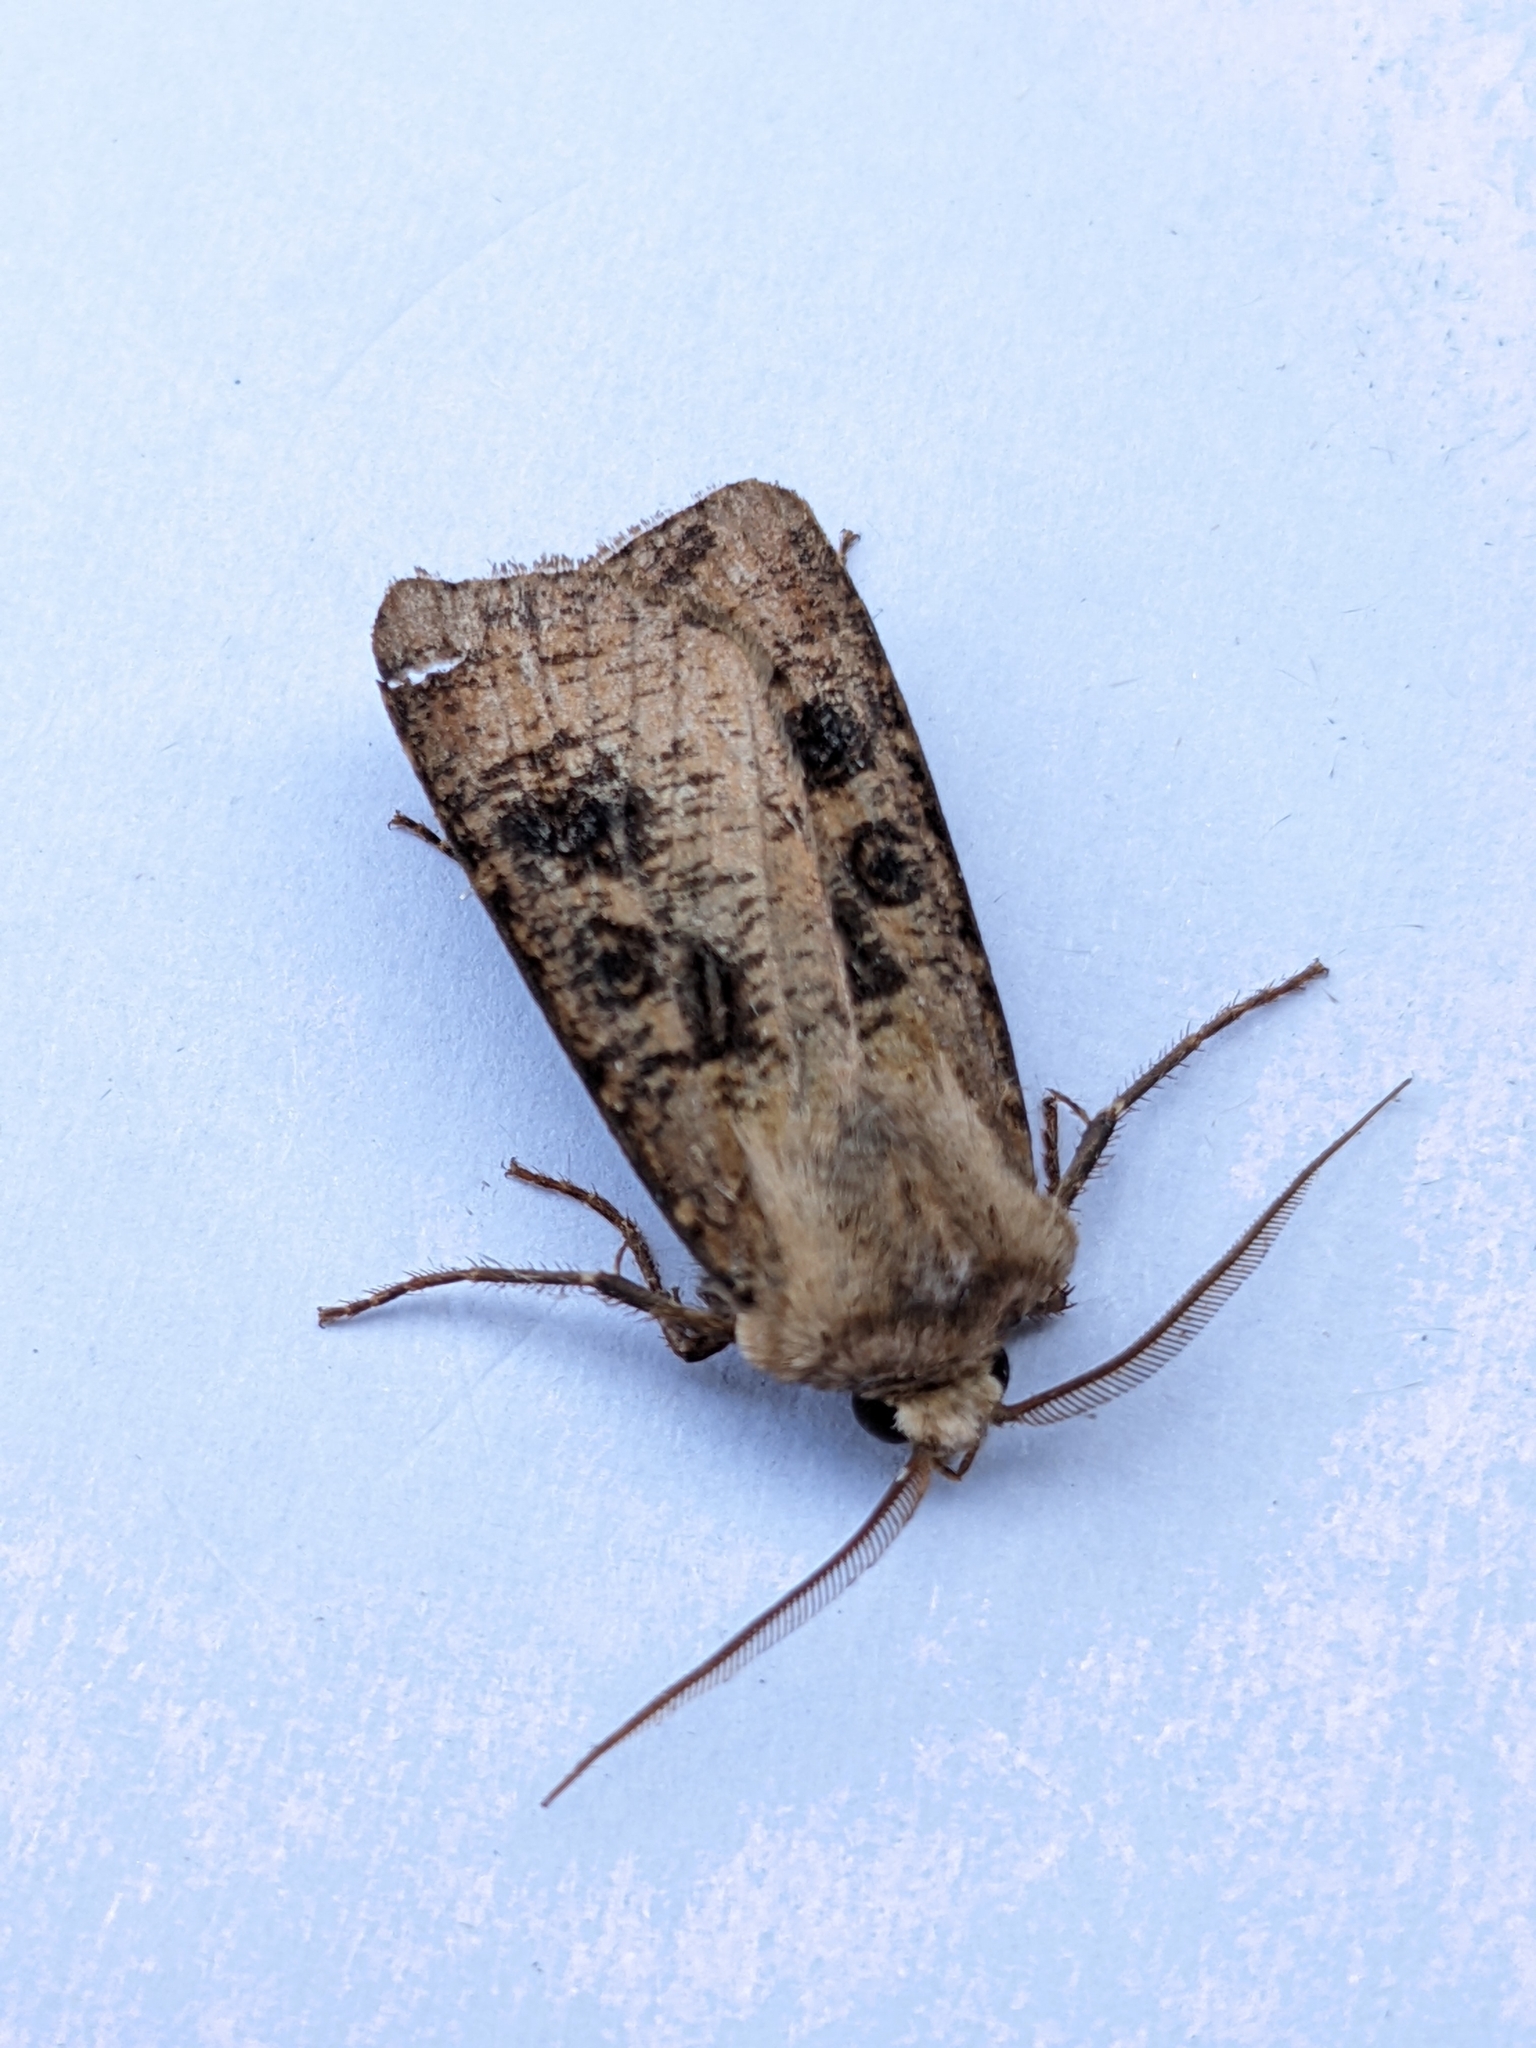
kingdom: Animalia
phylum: Arthropoda
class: Insecta
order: Lepidoptera
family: Noctuidae
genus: Agrotis
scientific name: Agrotis clavis
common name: Heart and club
